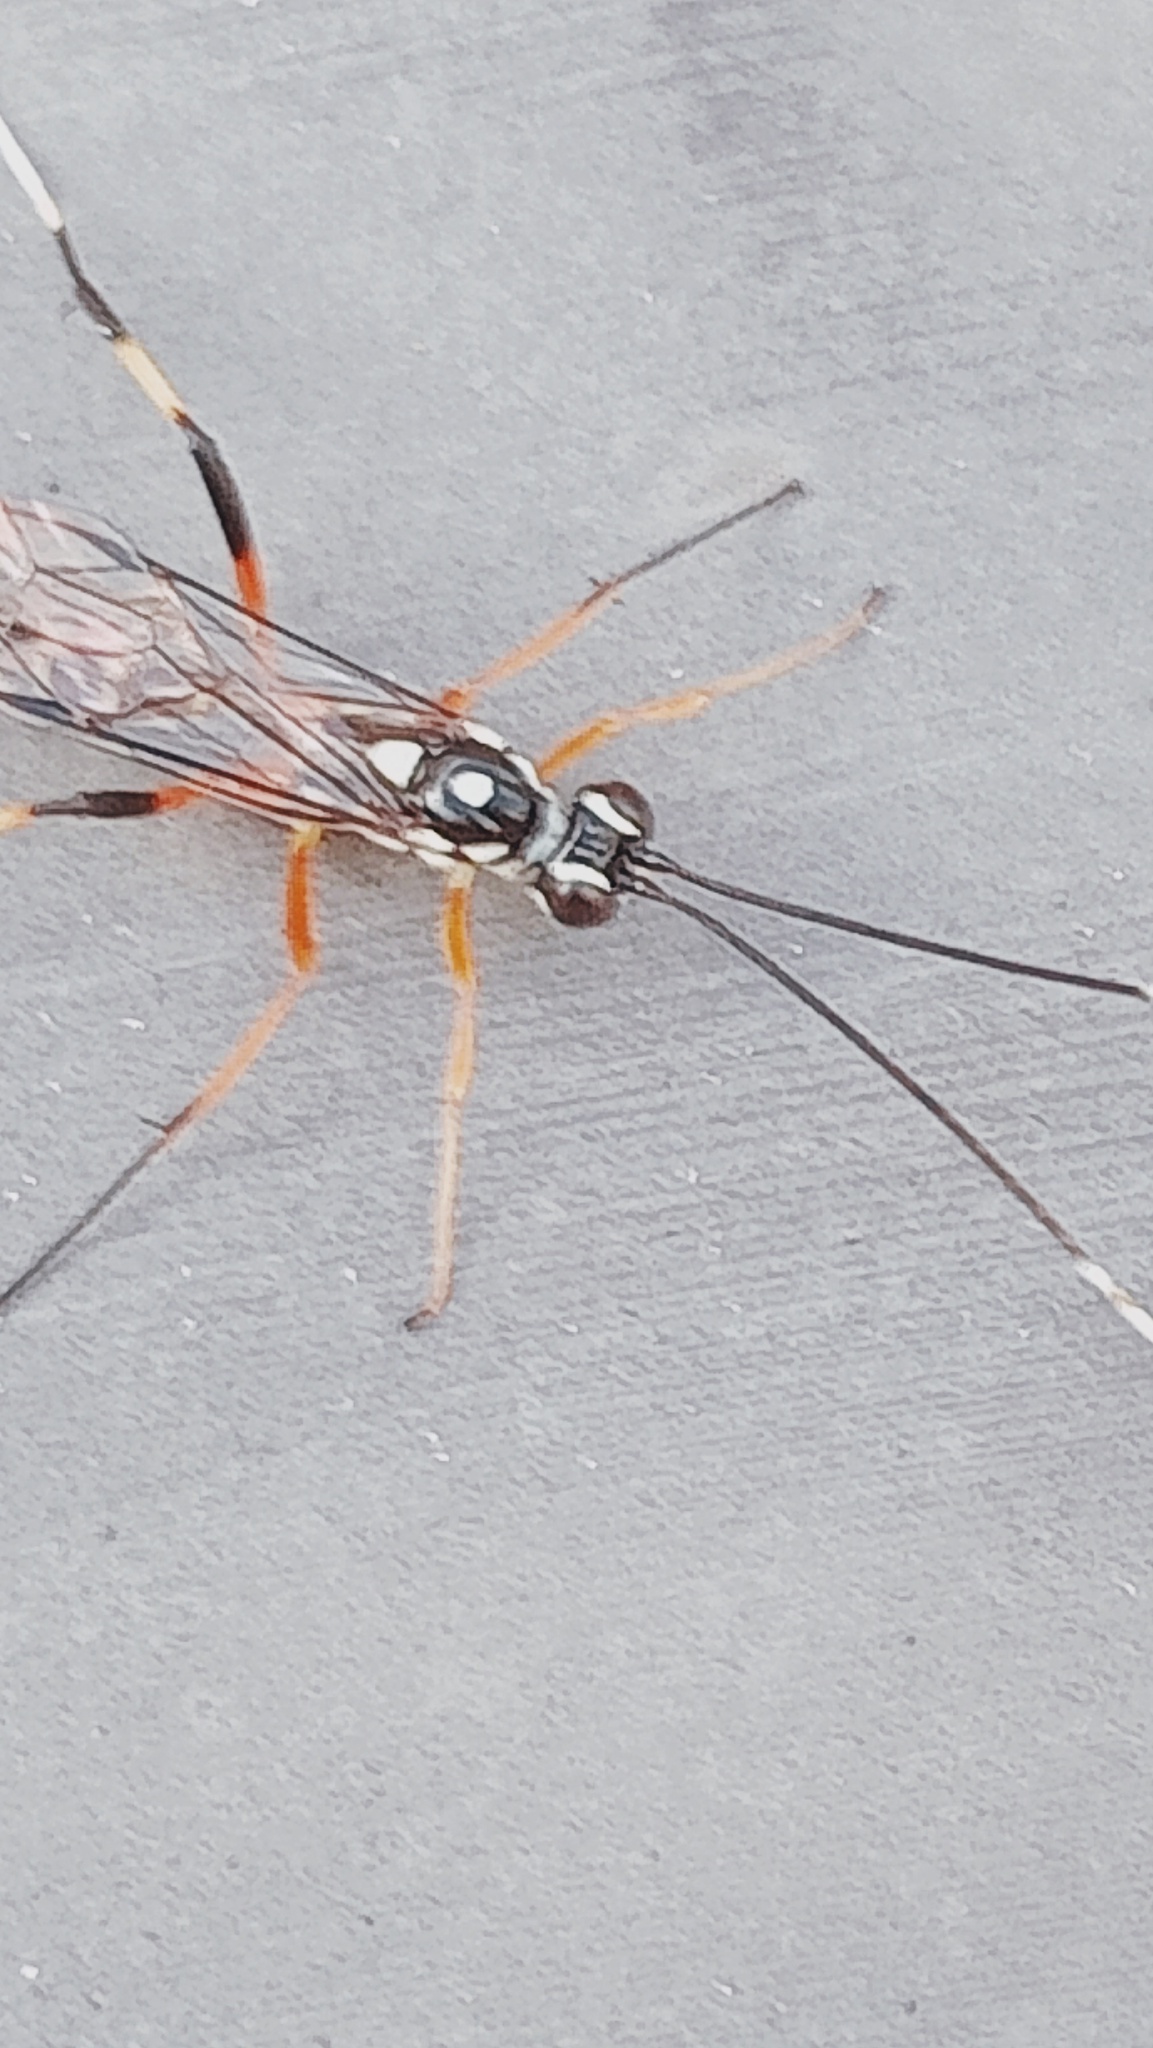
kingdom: Animalia
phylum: Arthropoda
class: Insecta
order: Hymenoptera
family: Ichneumonidae
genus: Xanthocryptus
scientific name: Xanthocryptus novozealandicus
